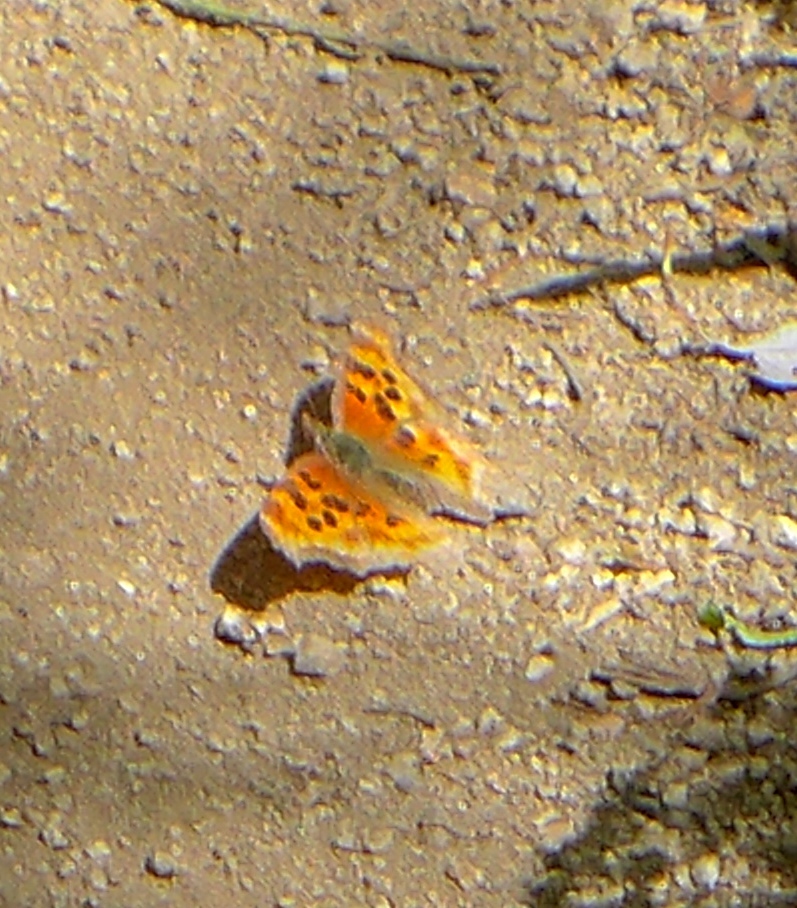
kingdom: Animalia
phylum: Arthropoda
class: Insecta
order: Lepidoptera
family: Nymphalidae
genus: Polygonia
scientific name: Polygonia satyrus
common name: Satyr angle wing
